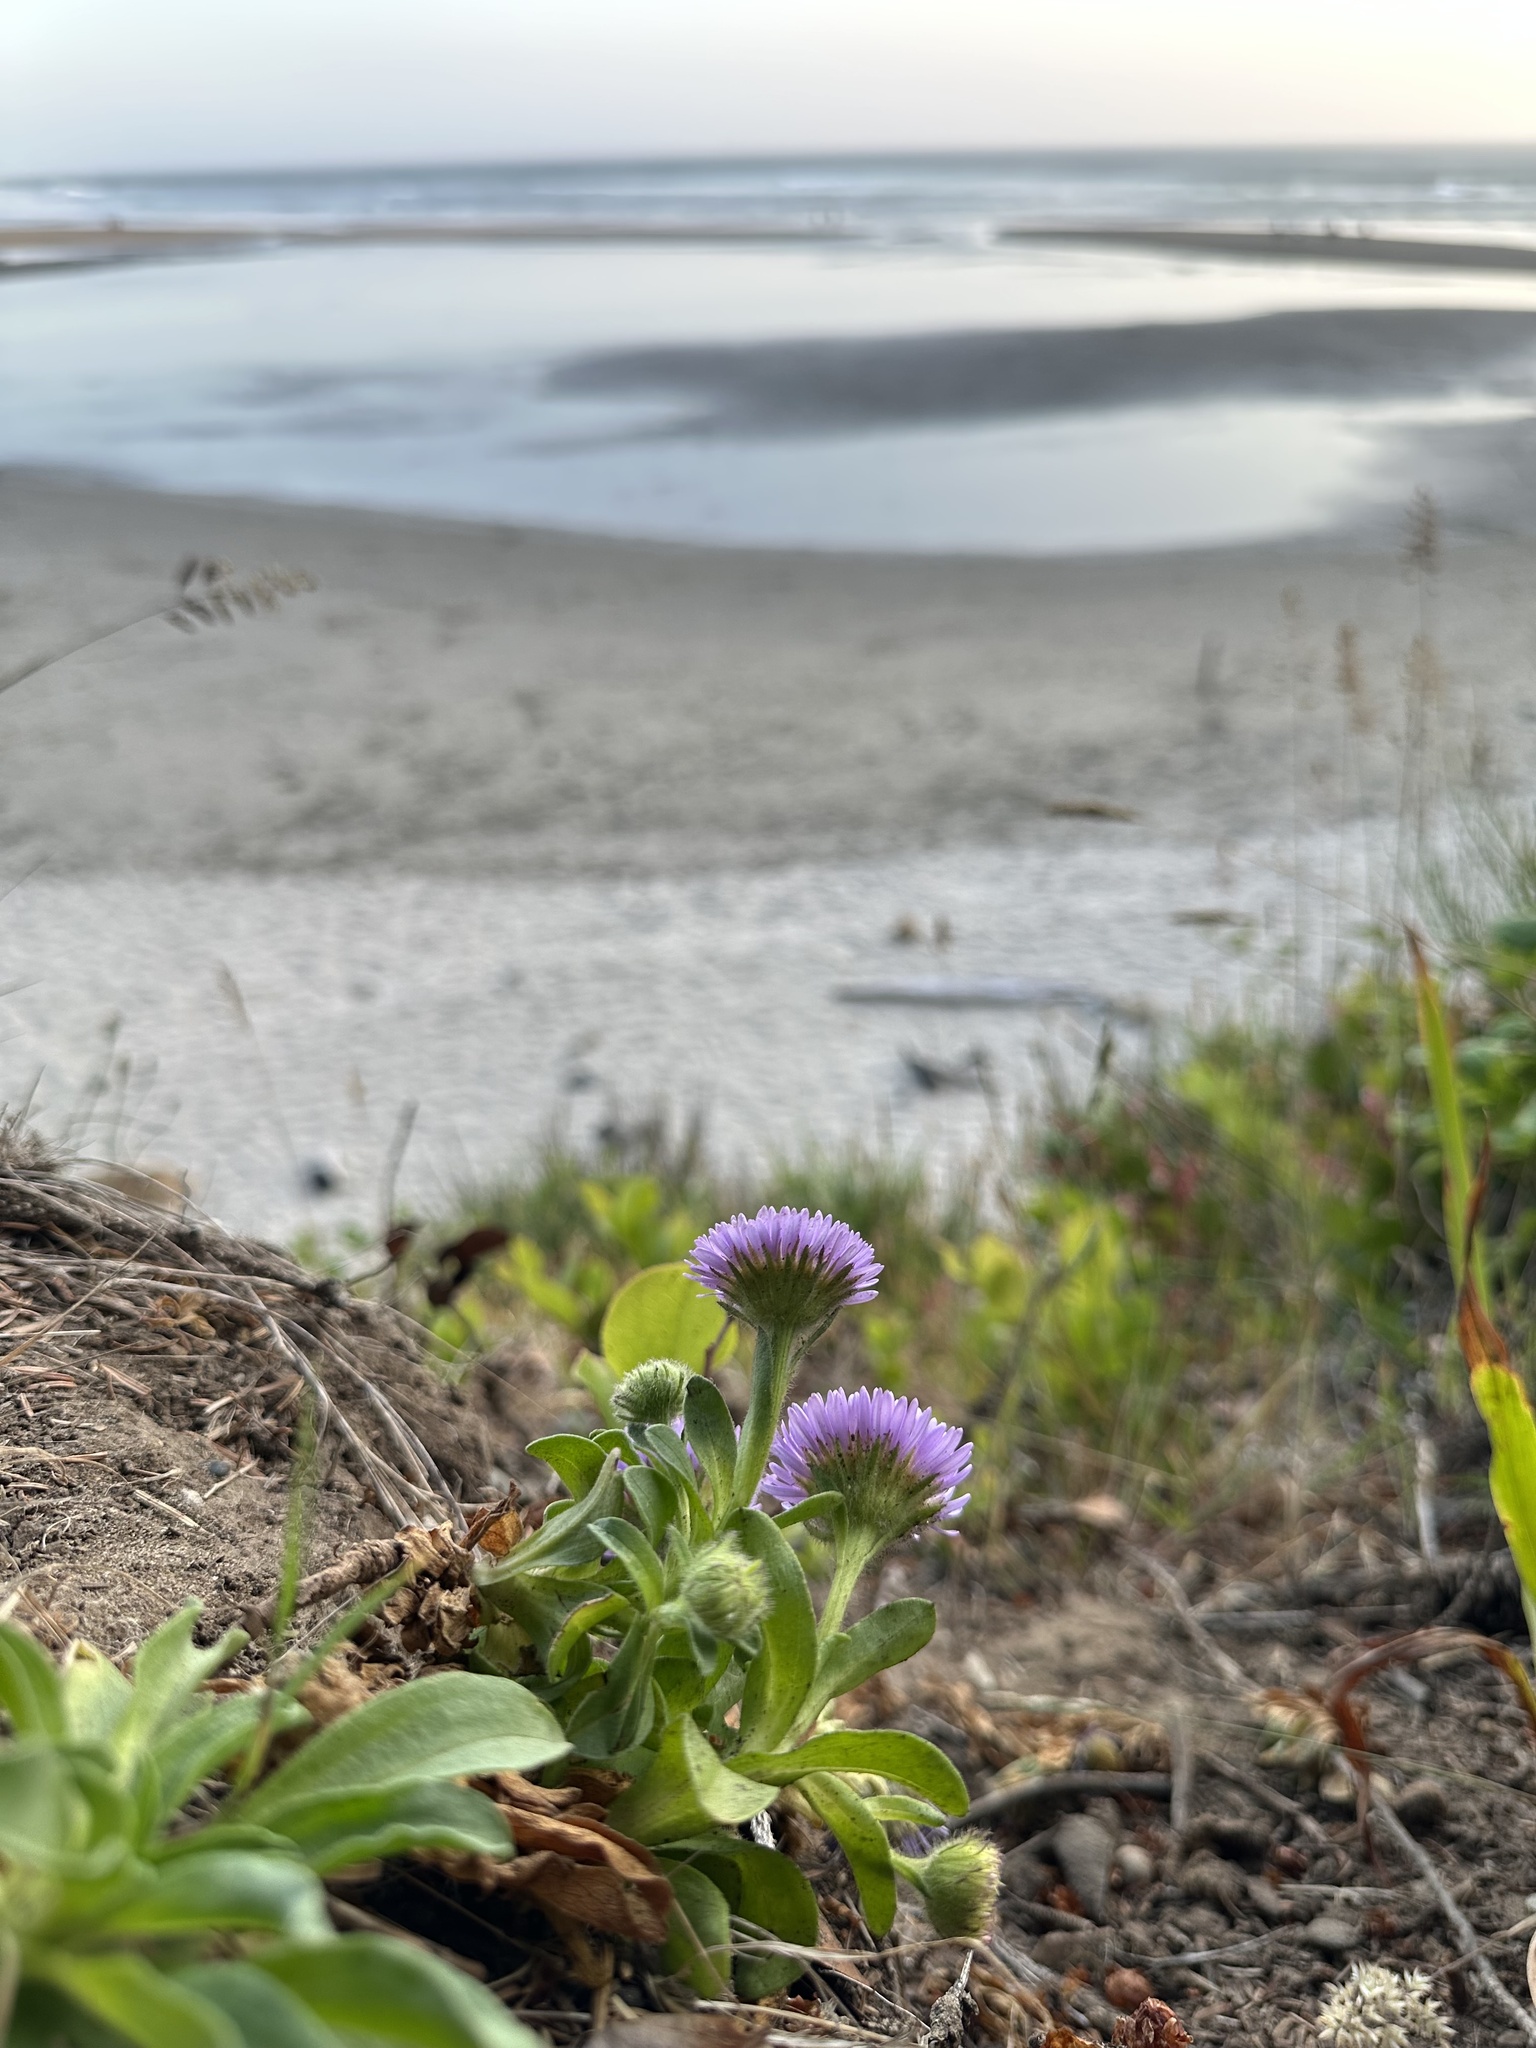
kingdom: Plantae
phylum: Tracheophyta
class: Magnoliopsida
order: Asterales
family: Asteraceae
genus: Erigeron
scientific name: Erigeron glaucus
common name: Seaside daisy
